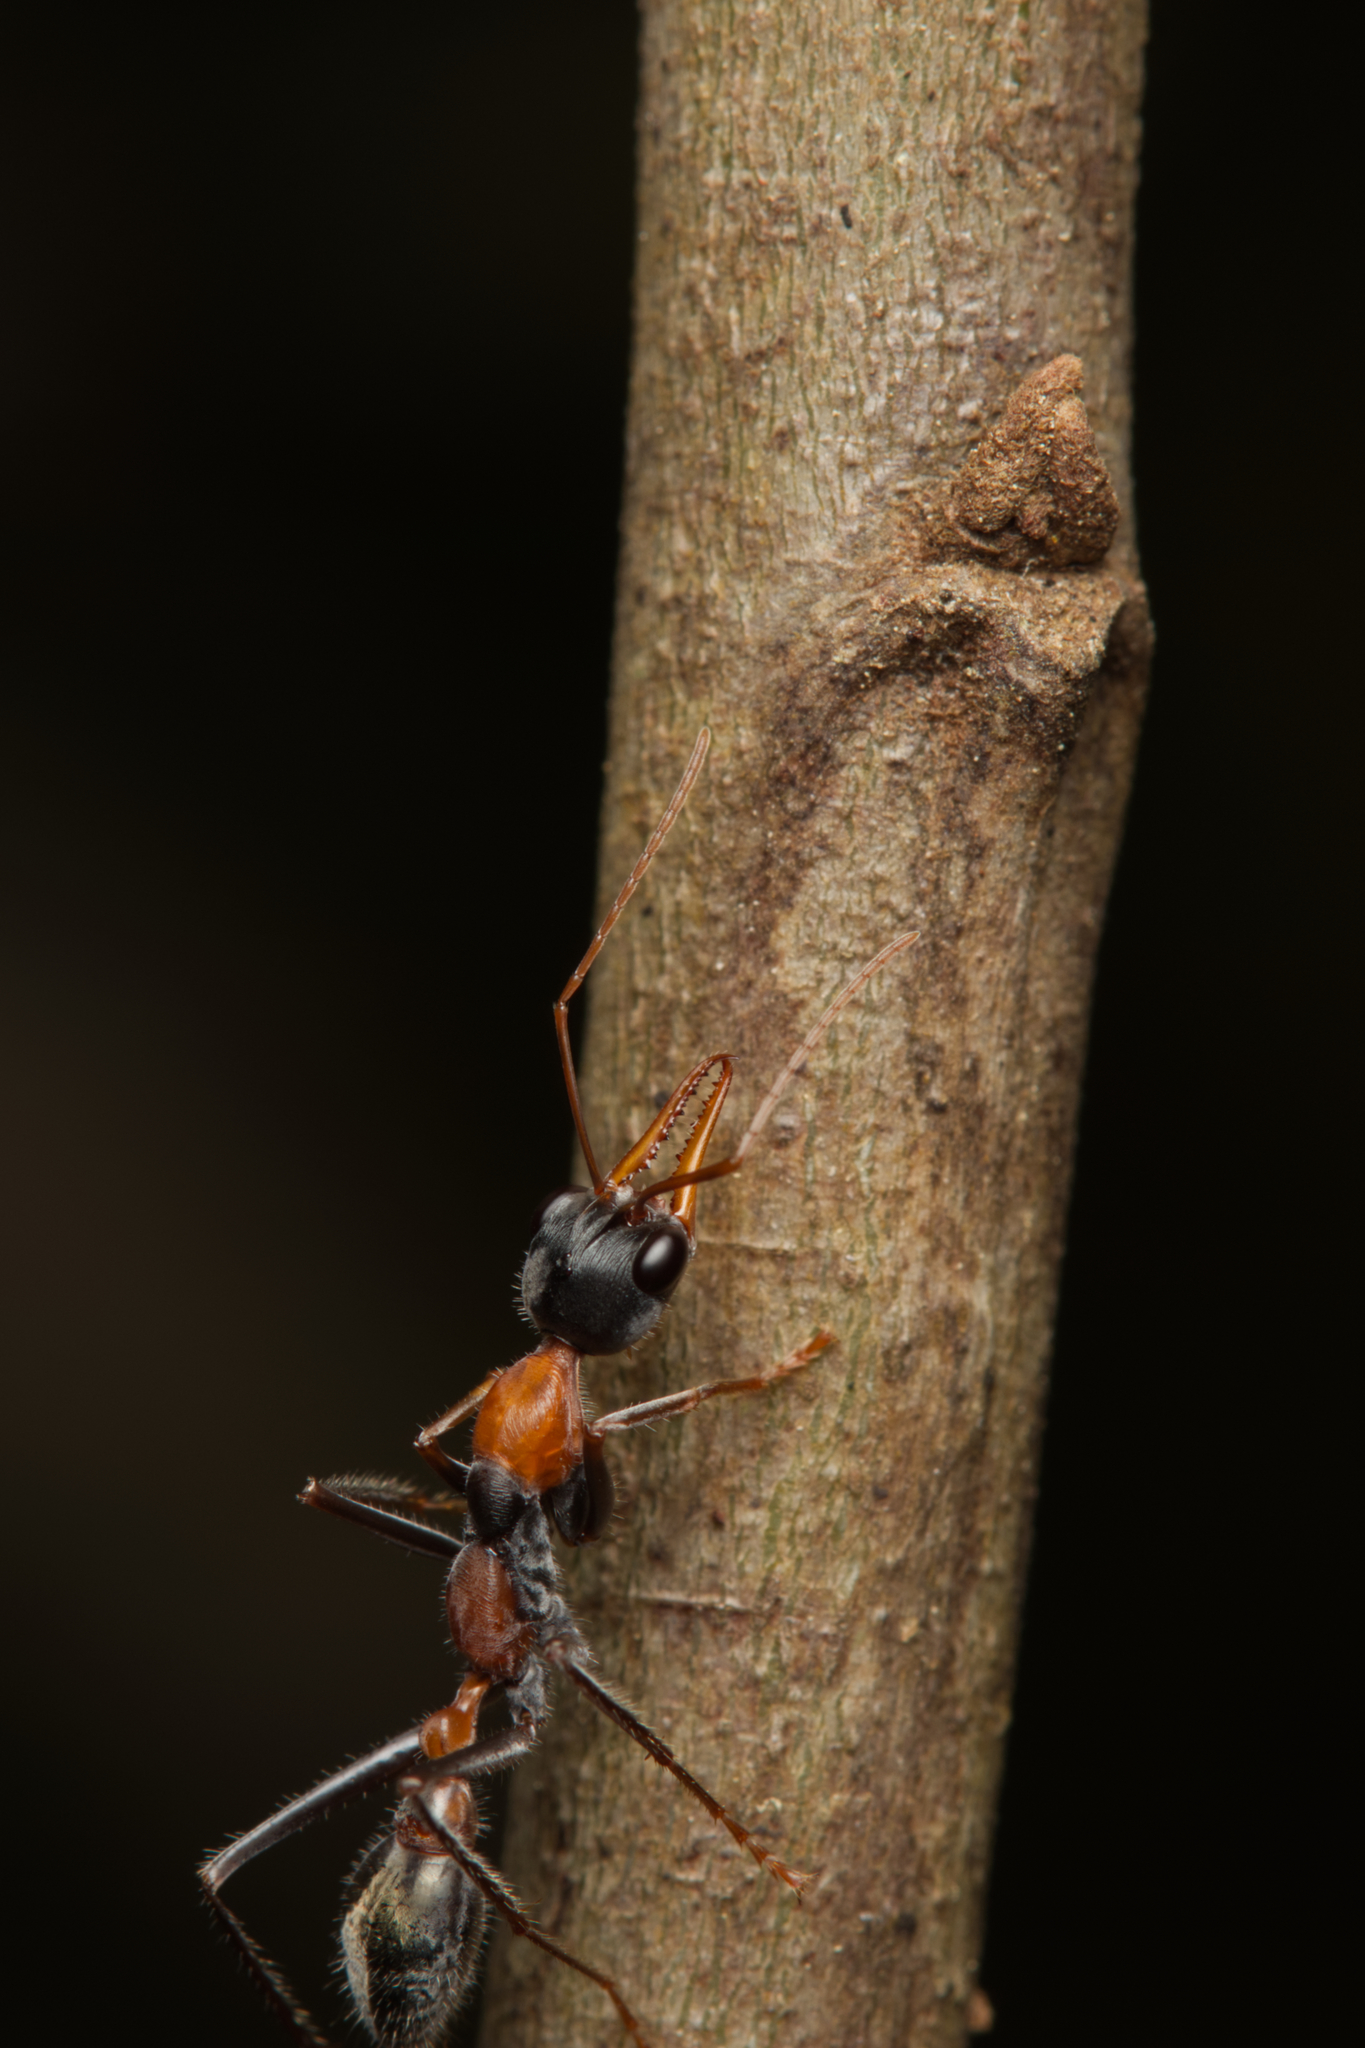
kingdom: Animalia
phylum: Arthropoda
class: Insecta
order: Hymenoptera
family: Formicidae
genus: Myrmecia
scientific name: Myrmecia nigrocincta
